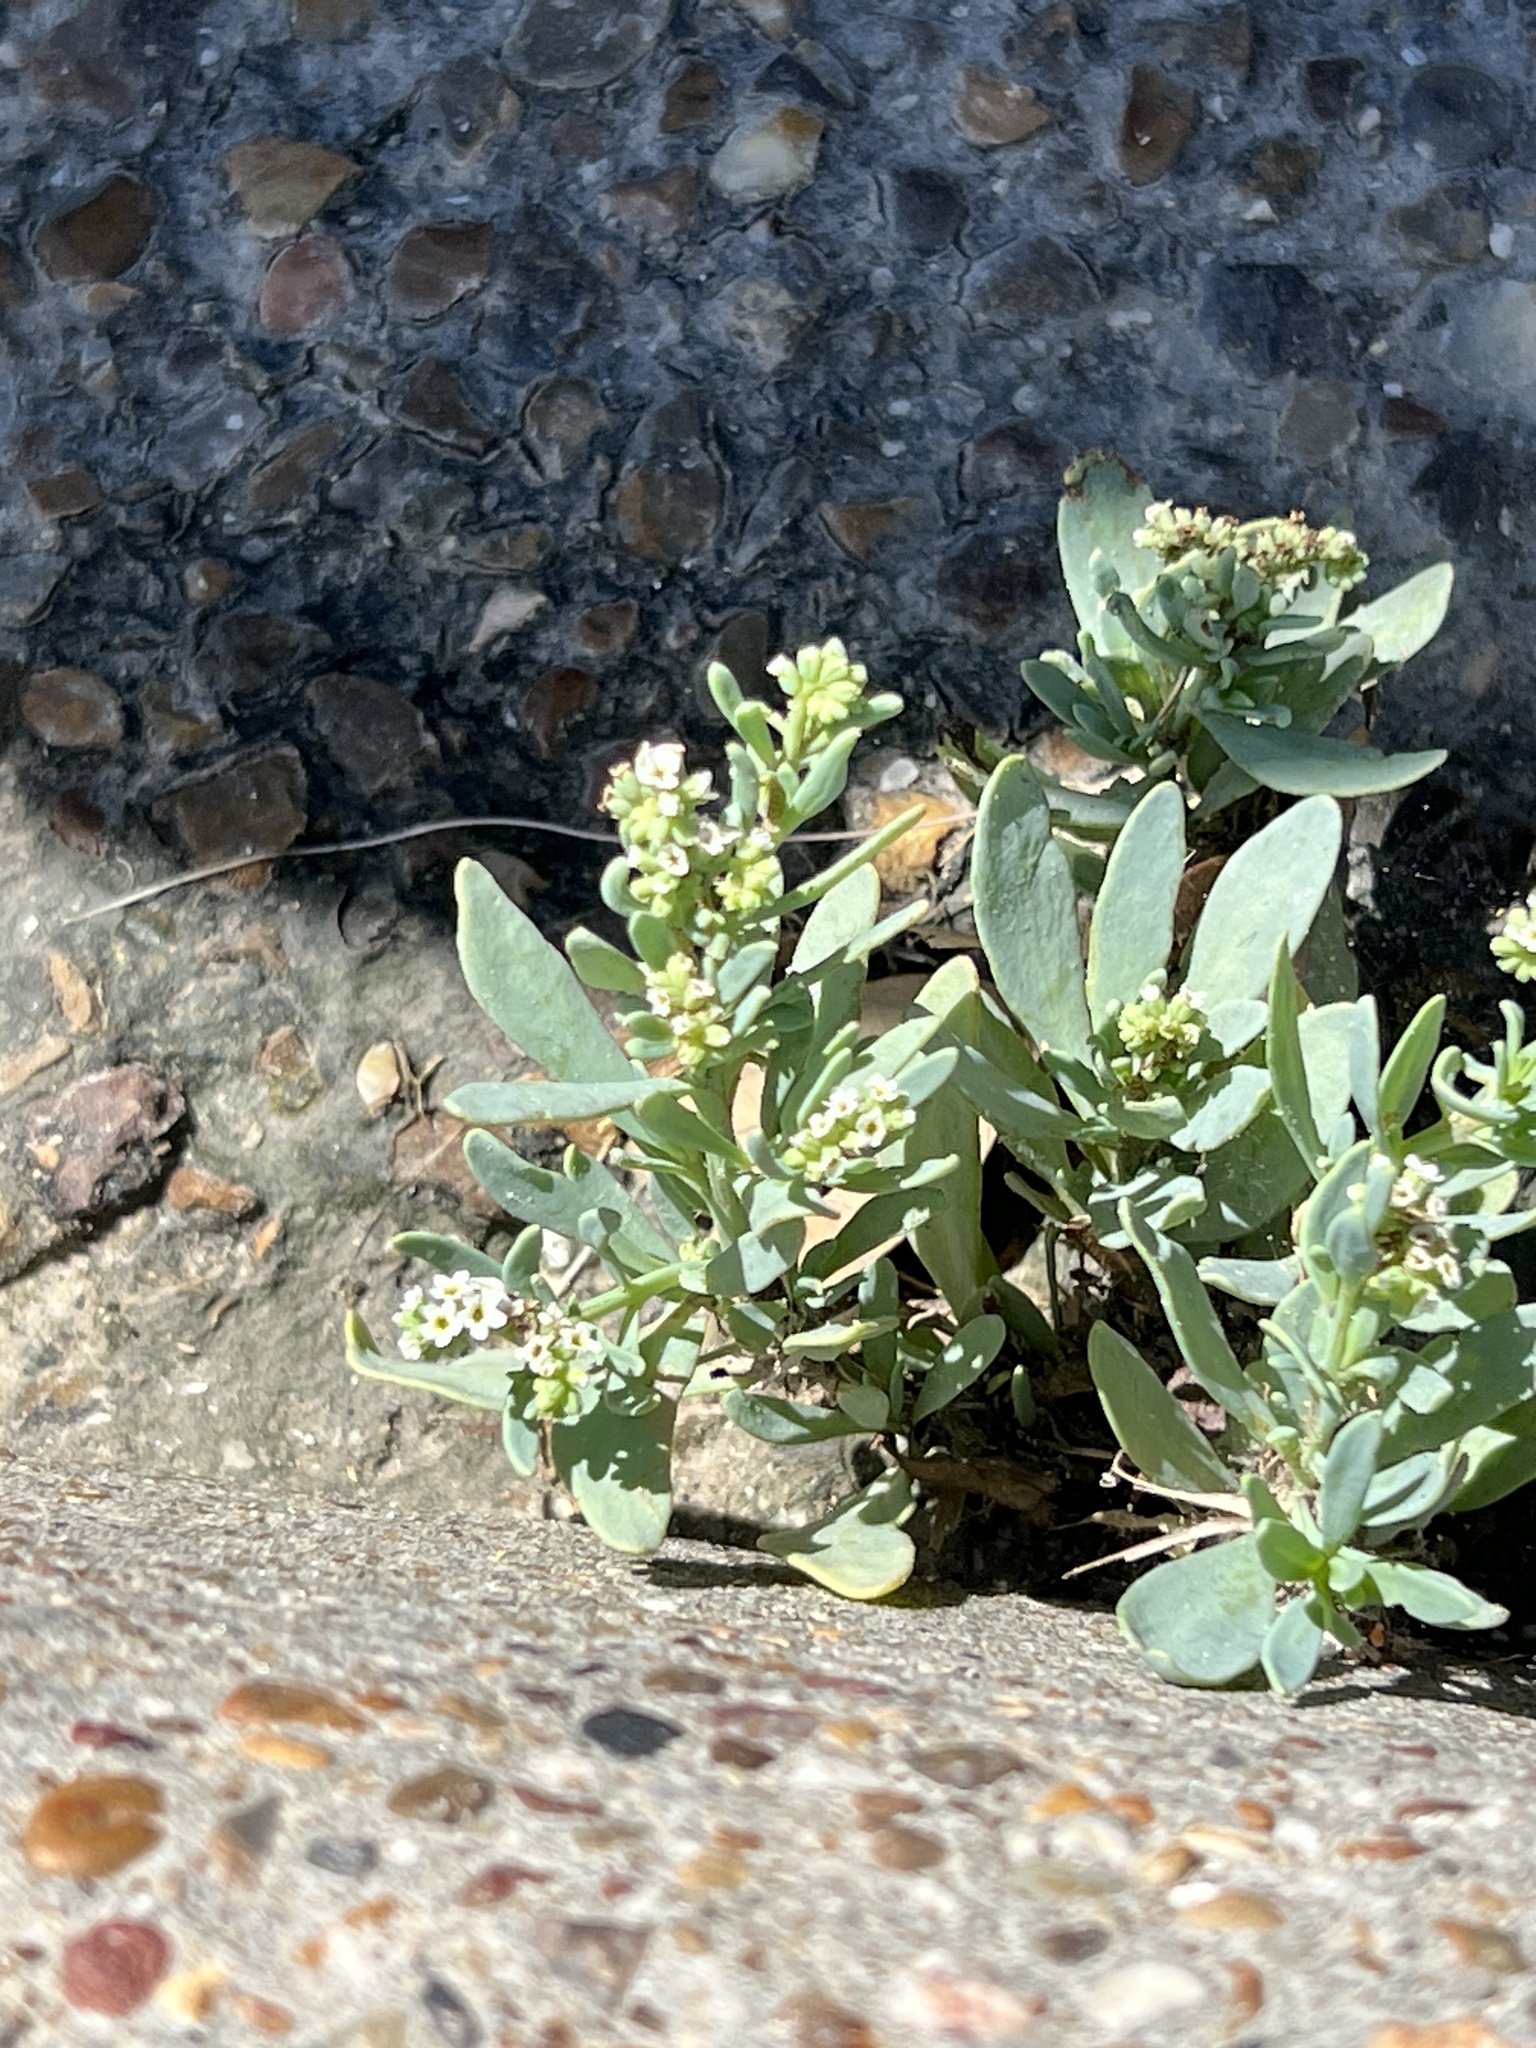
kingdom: Plantae
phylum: Tracheophyta
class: Magnoliopsida
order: Boraginales
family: Heliotropiaceae
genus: Heliotropium
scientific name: Heliotropium curassavicum
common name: Seaside heliotrope
